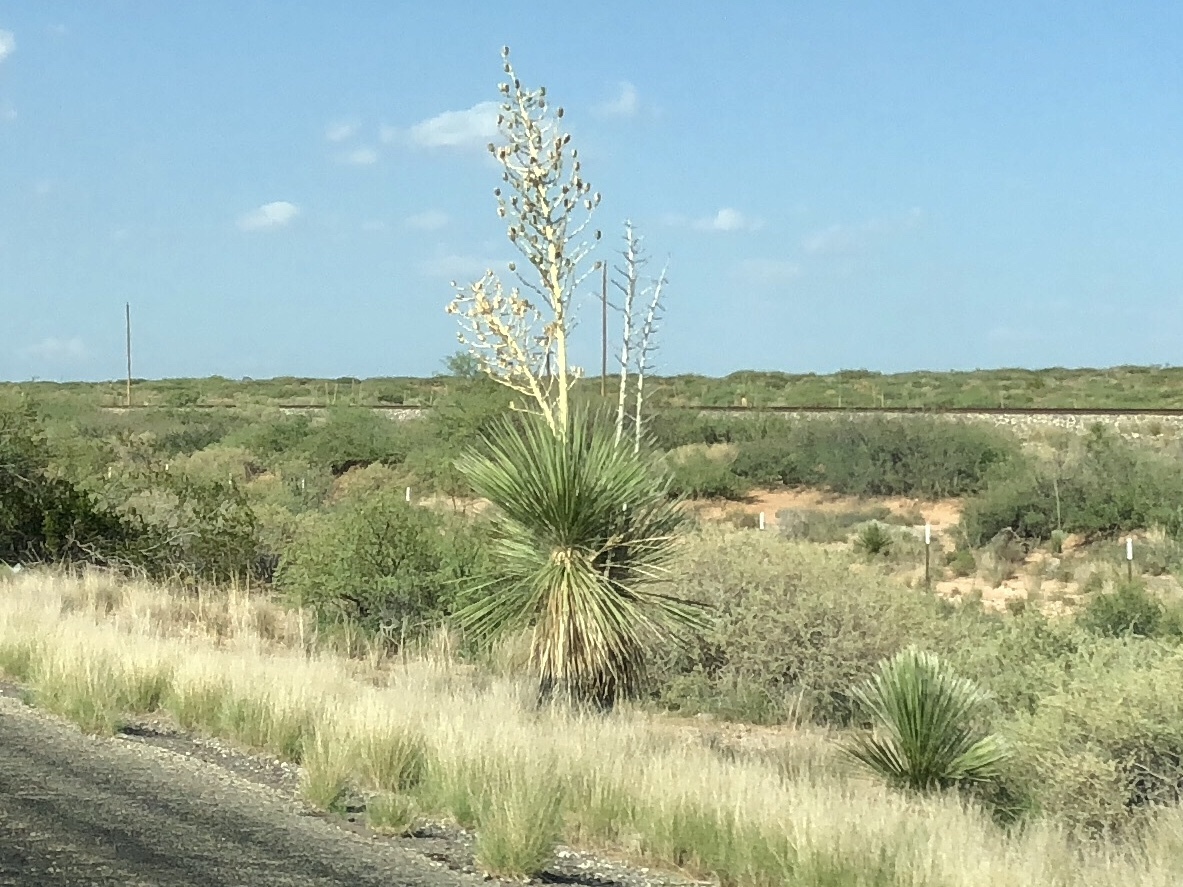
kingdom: Plantae
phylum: Tracheophyta
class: Liliopsida
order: Asparagales
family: Asparagaceae
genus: Yucca
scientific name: Yucca elata
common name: Palmella
